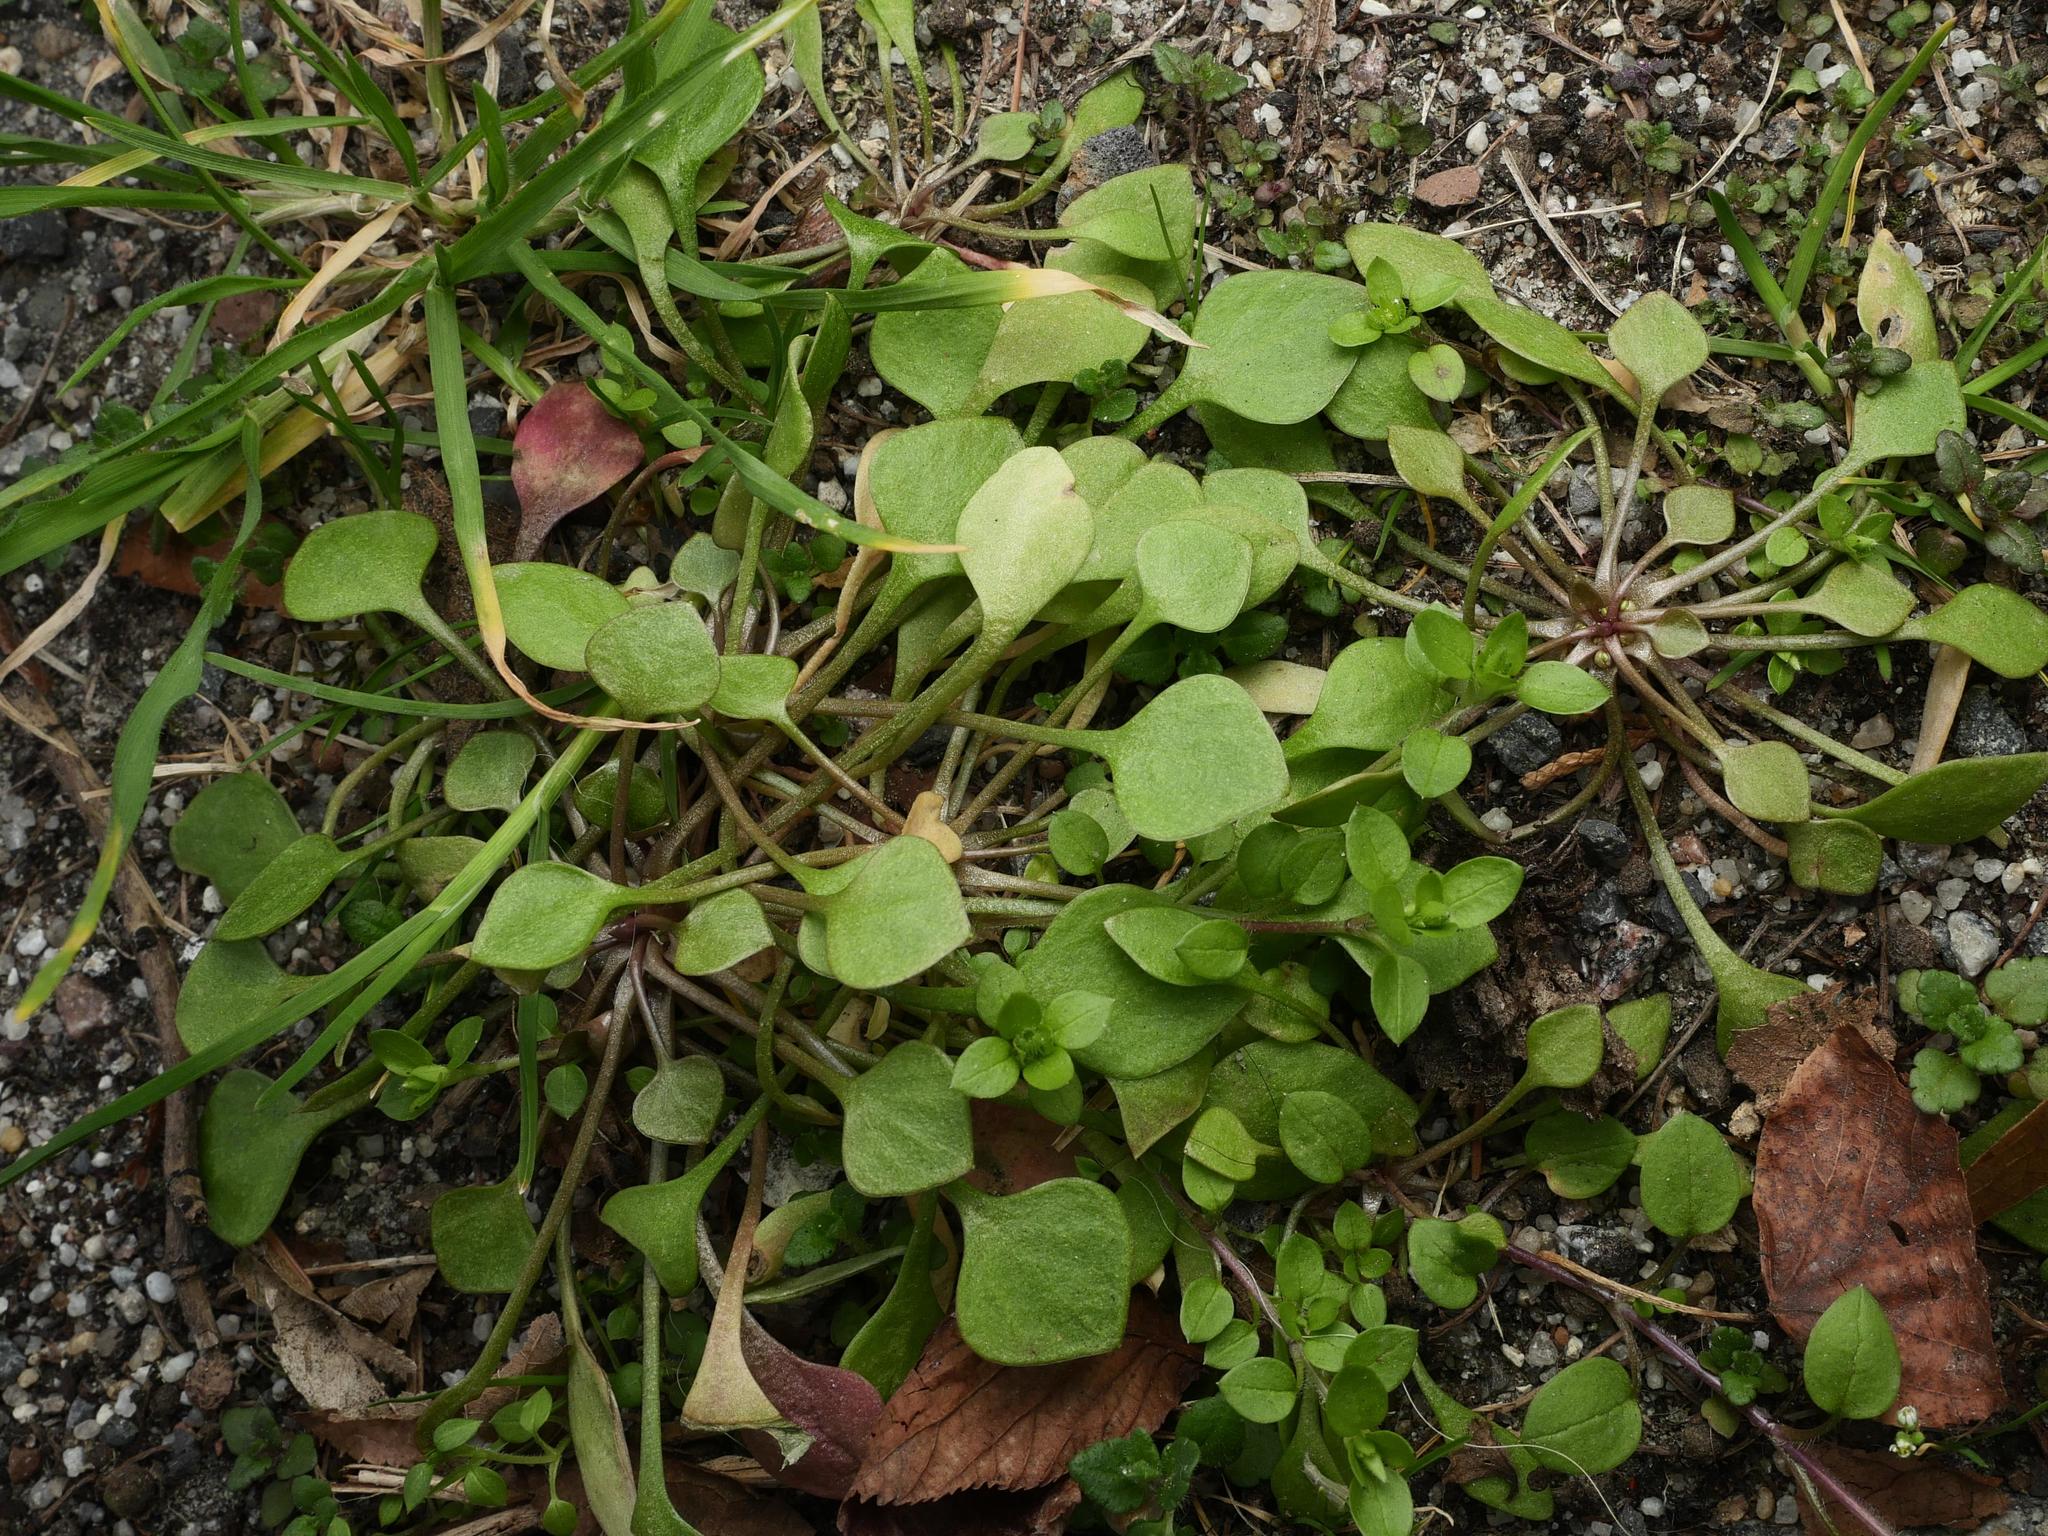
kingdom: Plantae
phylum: Tracheophyta
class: Magnoliopsida
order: Caryophyllales
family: Montiaceae
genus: Claytonia
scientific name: Claytonia perfoliata
